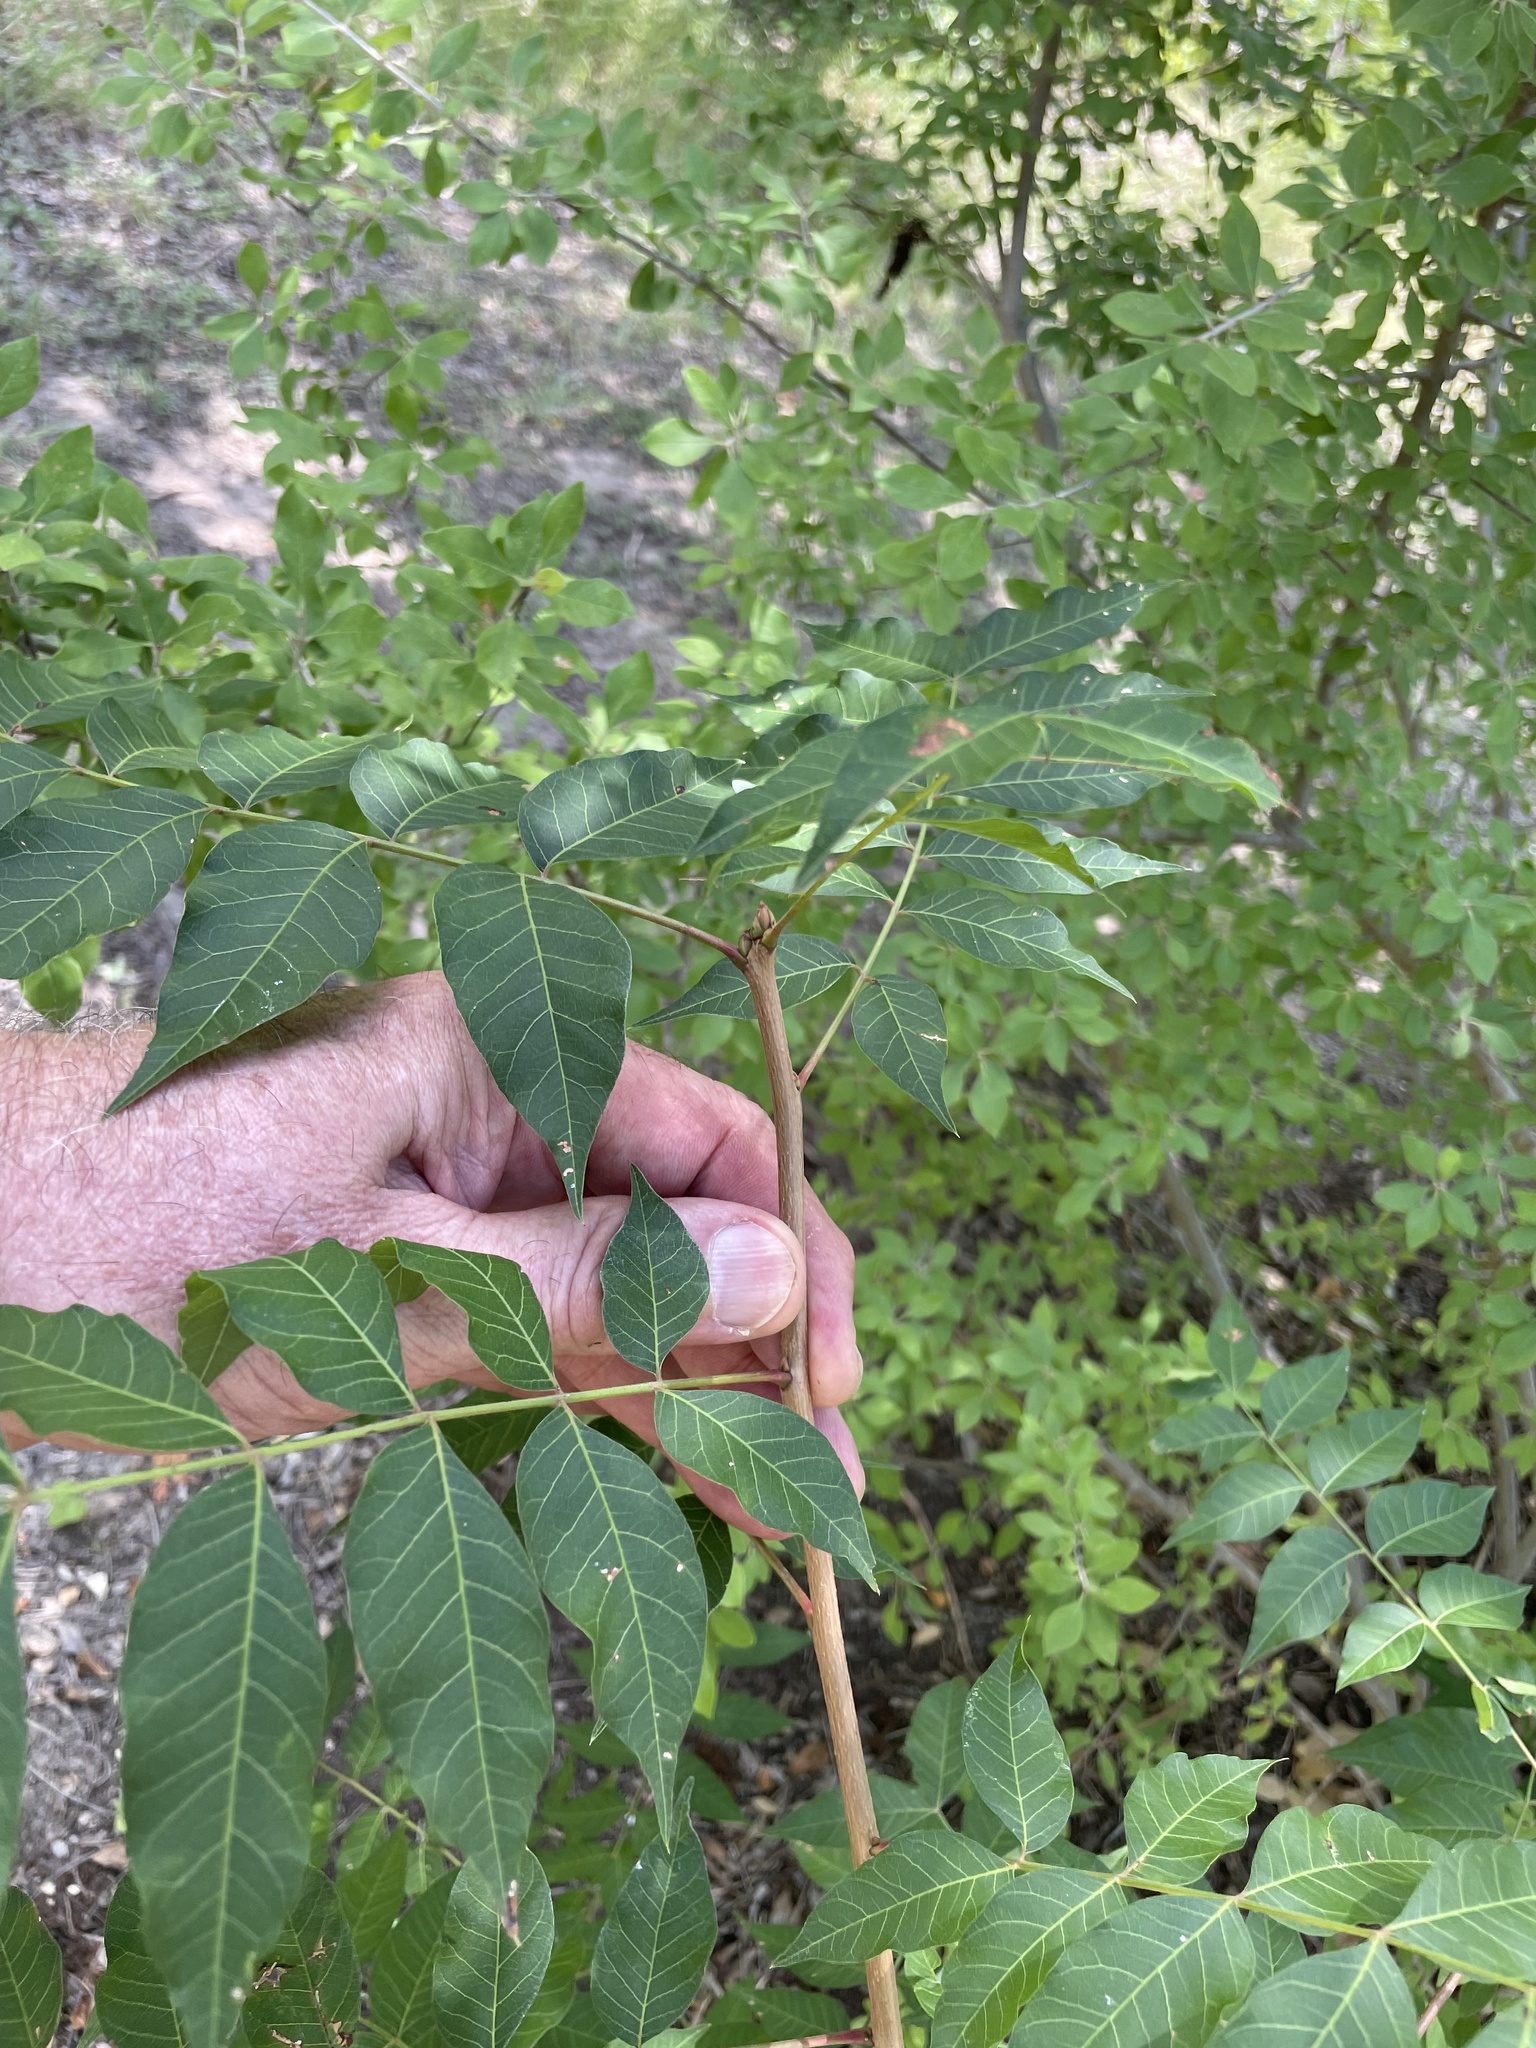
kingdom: Plantae
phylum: Tracheophyta
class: Magnoliopsida
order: Sapindales
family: Anacardiaceae
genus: Pistacia
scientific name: Pistacia chinensis
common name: Chinese pistache
